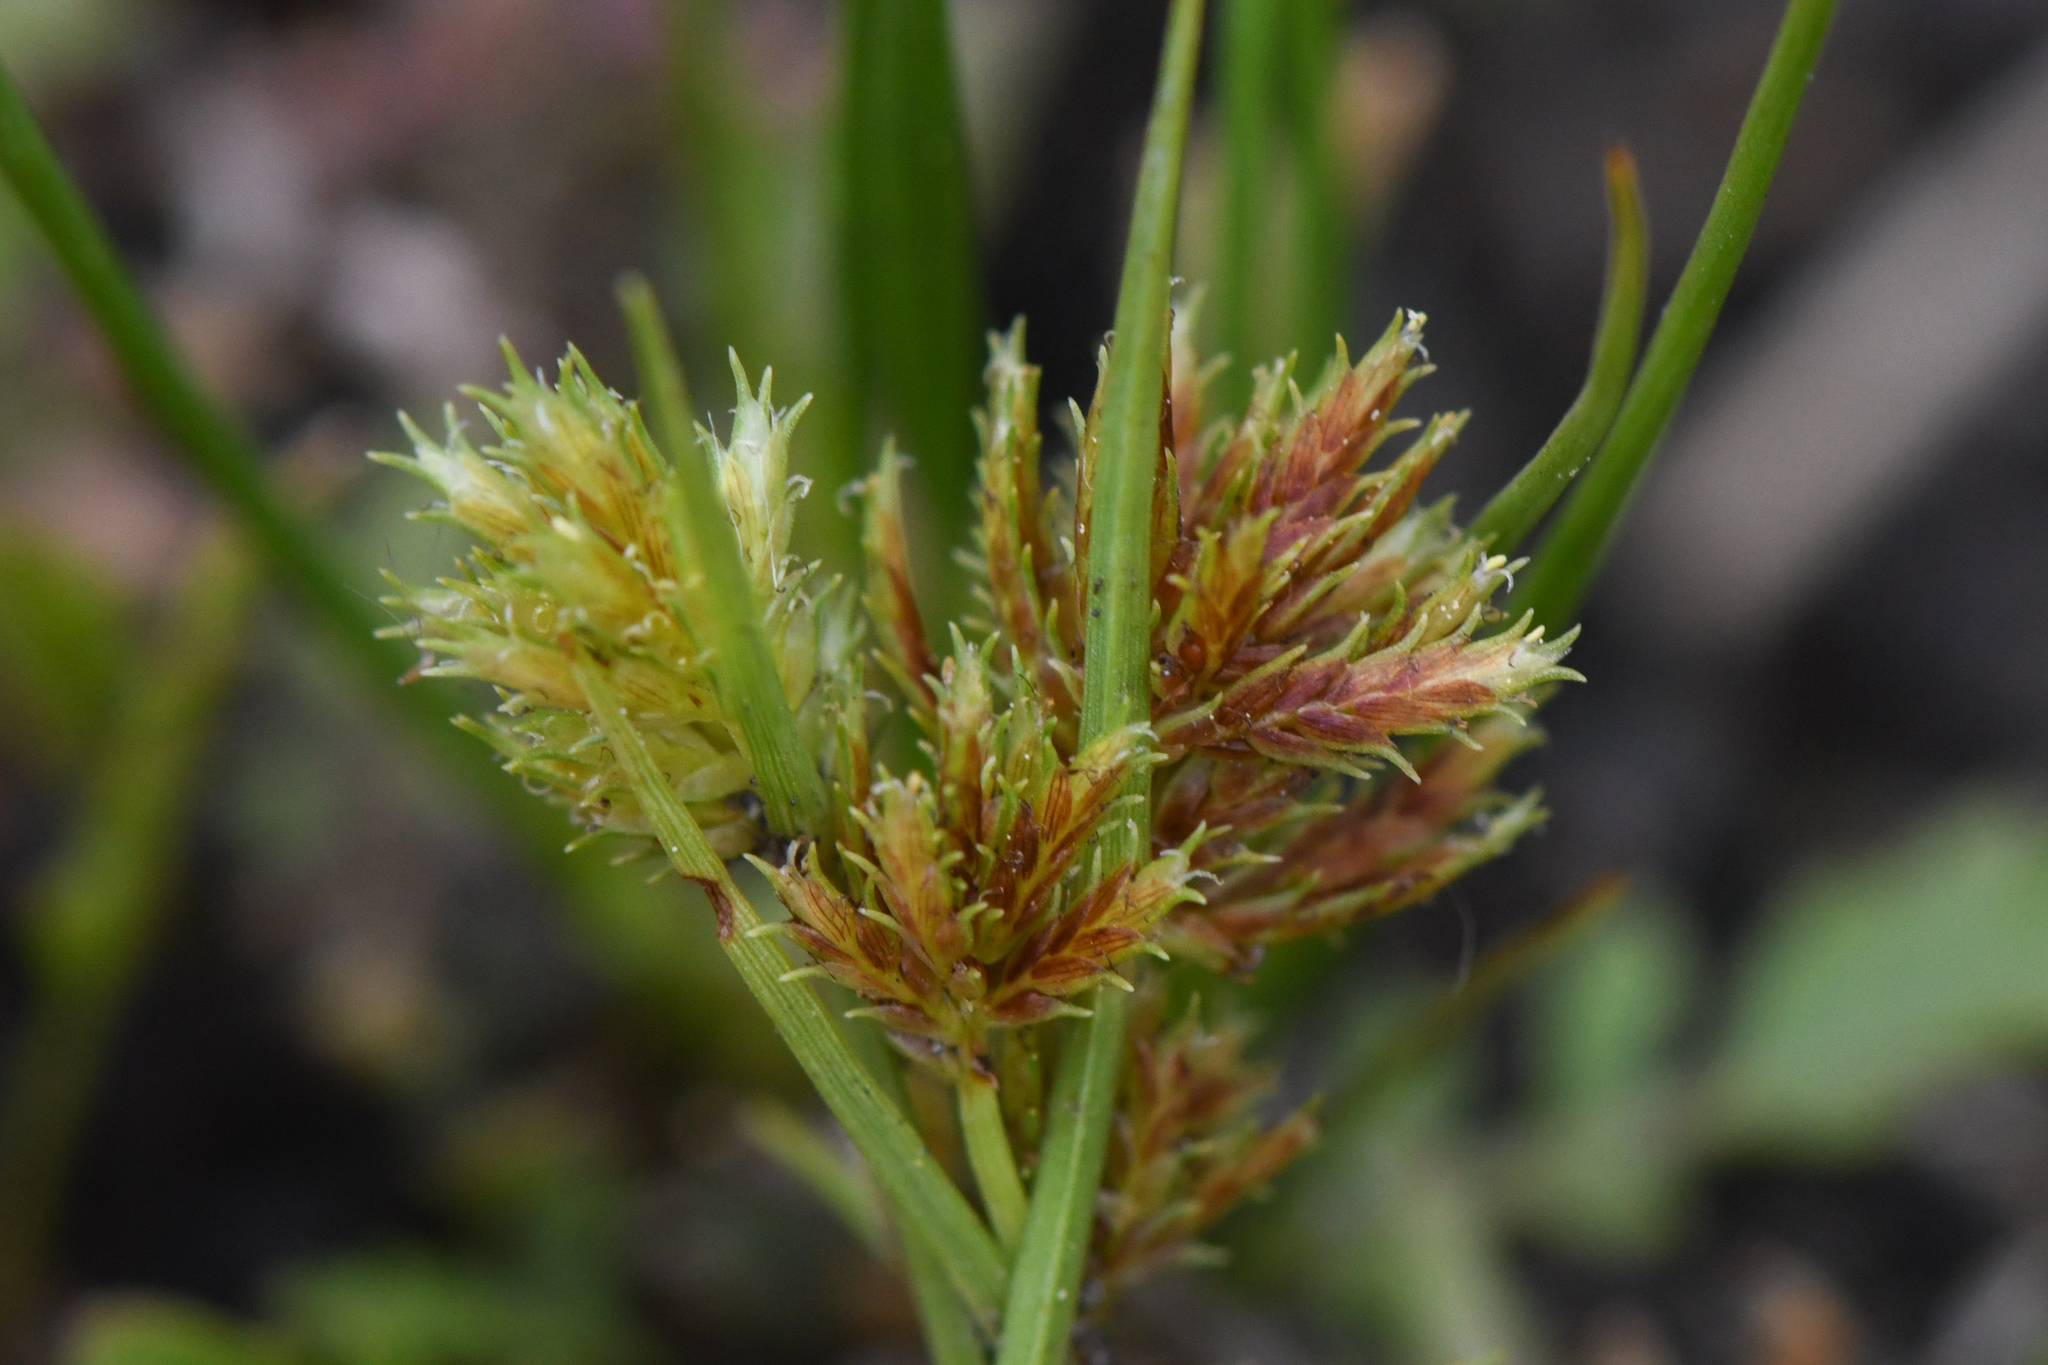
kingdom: Plantae
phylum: Tracheophyta
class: Liliopsida
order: Poales
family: Cyperaceae
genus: Cyperus
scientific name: Cyperus squarrosus
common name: Awned cyperus
